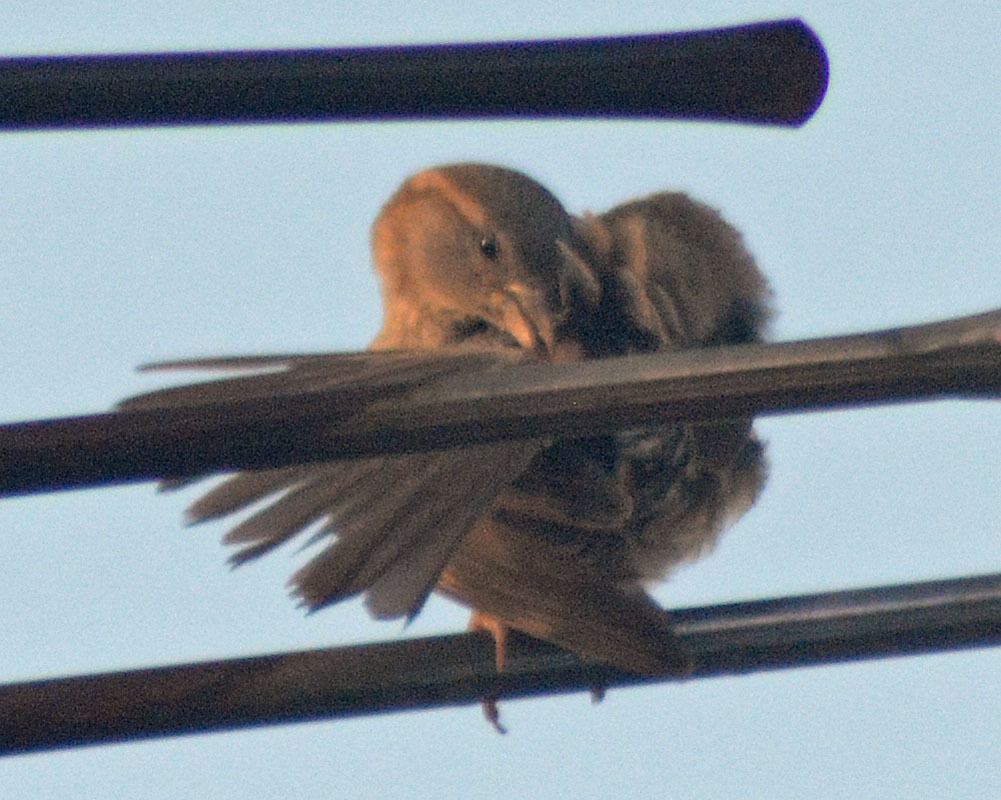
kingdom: Animalia
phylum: Chordata
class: Aves
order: Passeriformes
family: Passeridae
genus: Passer
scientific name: Passer domesticus
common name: House sparrow
